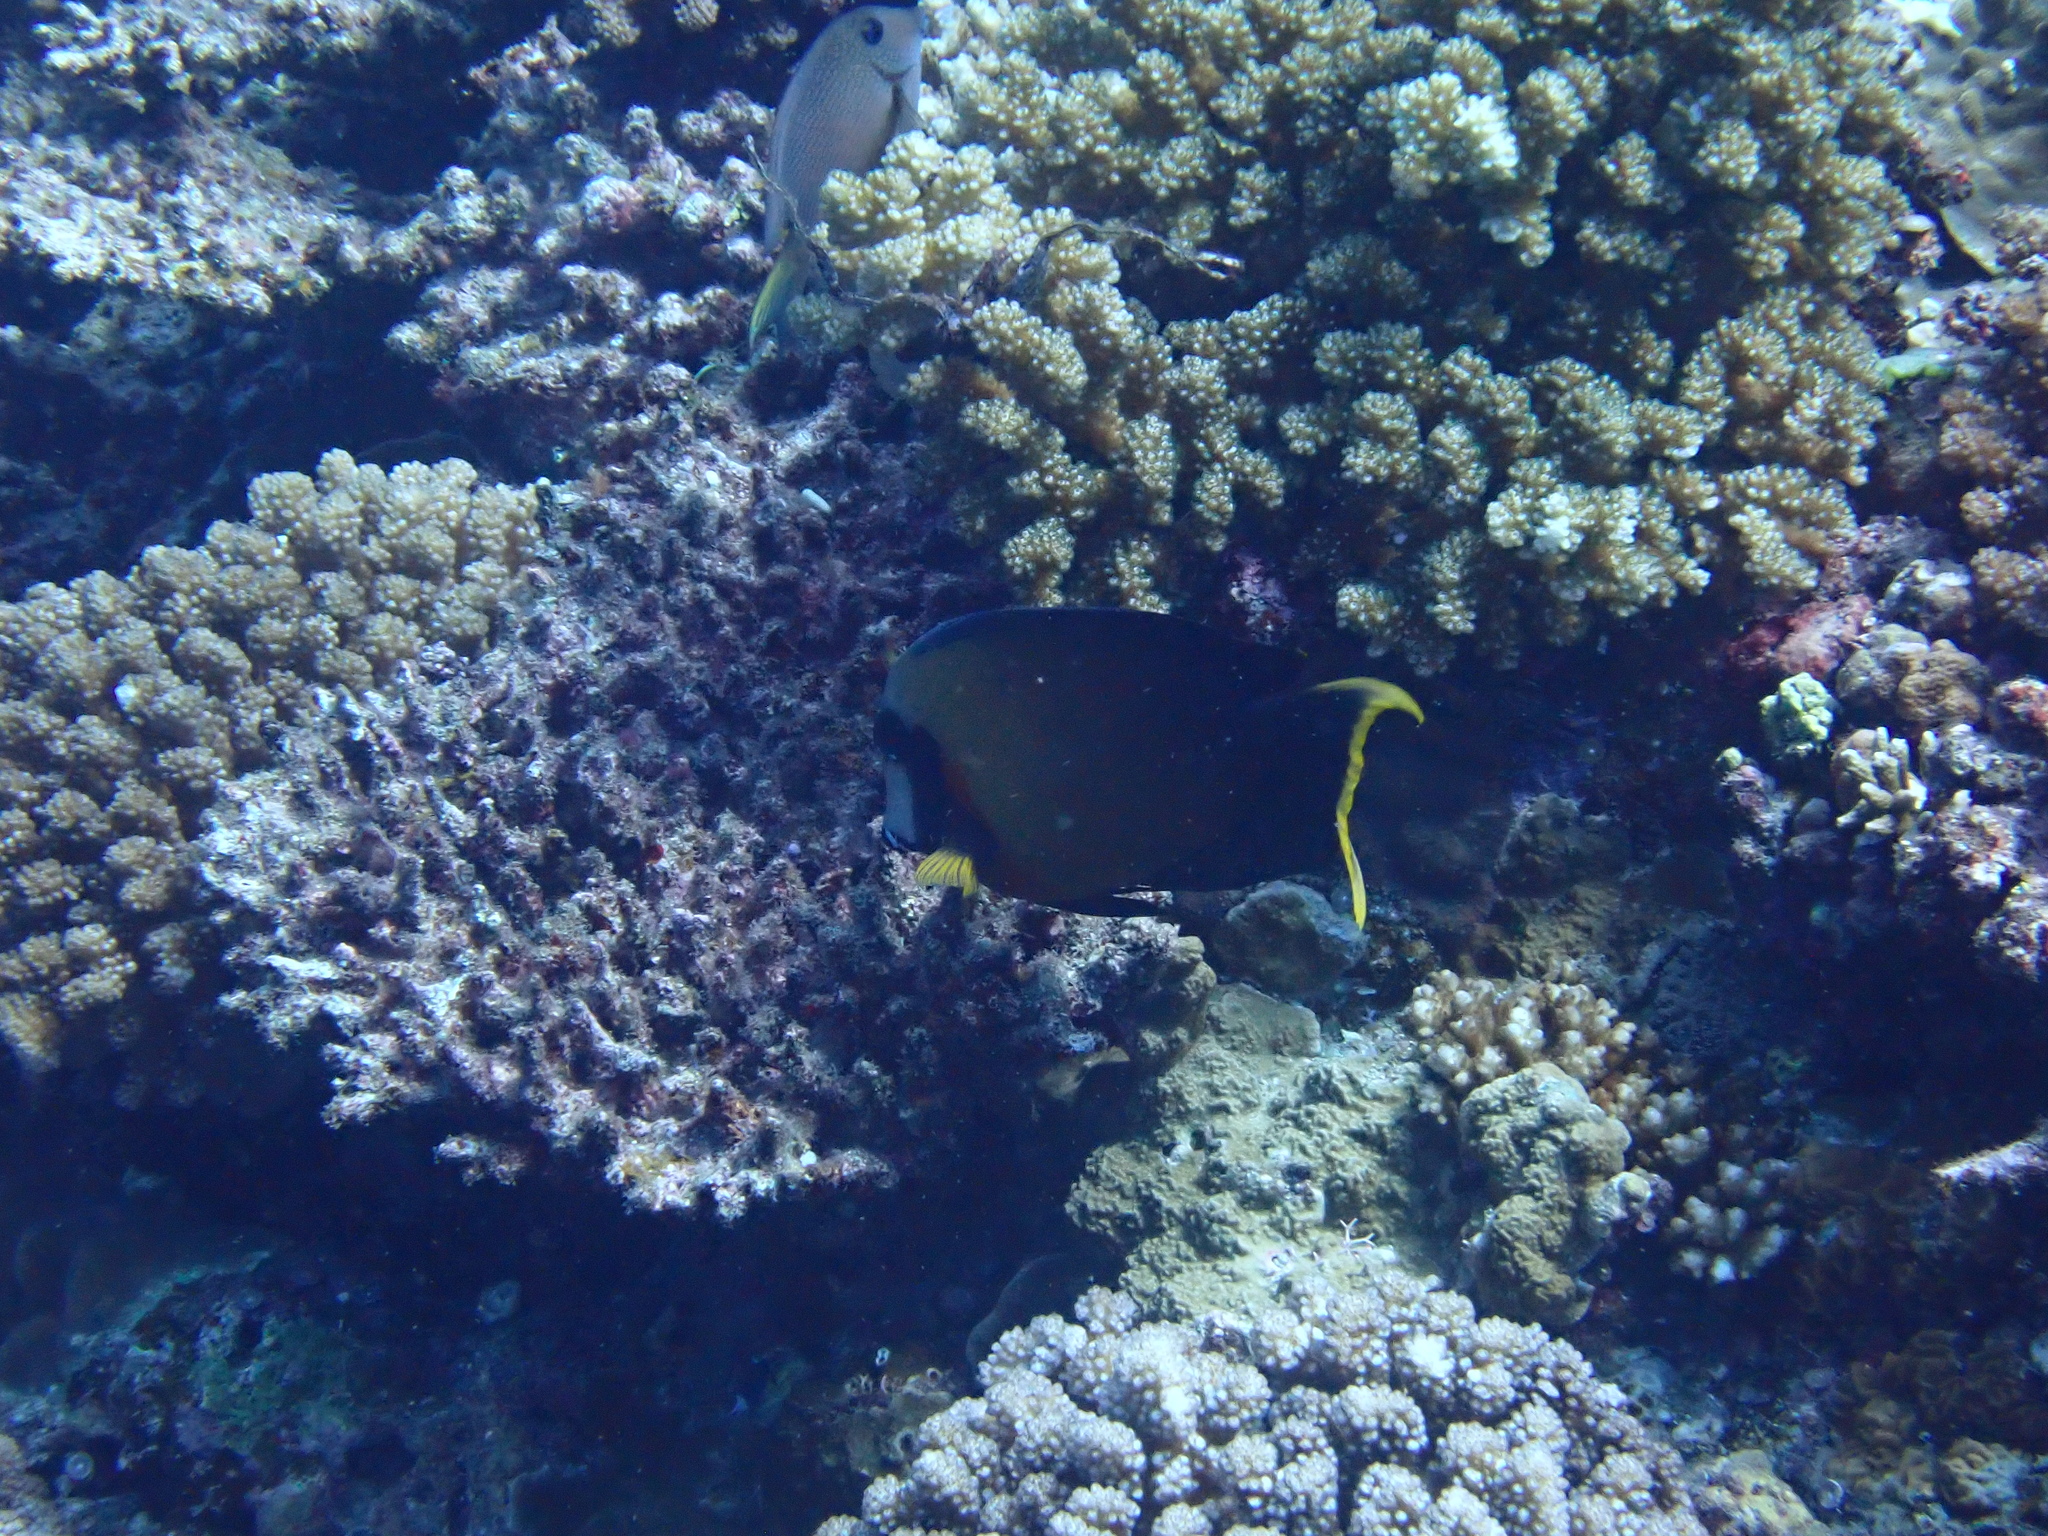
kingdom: Animalia
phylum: Chordata
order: Perciformes
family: Acanthuridae
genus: Acanthurus
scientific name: Acanthurus pyroferus
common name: Chocolate surgeonfish
